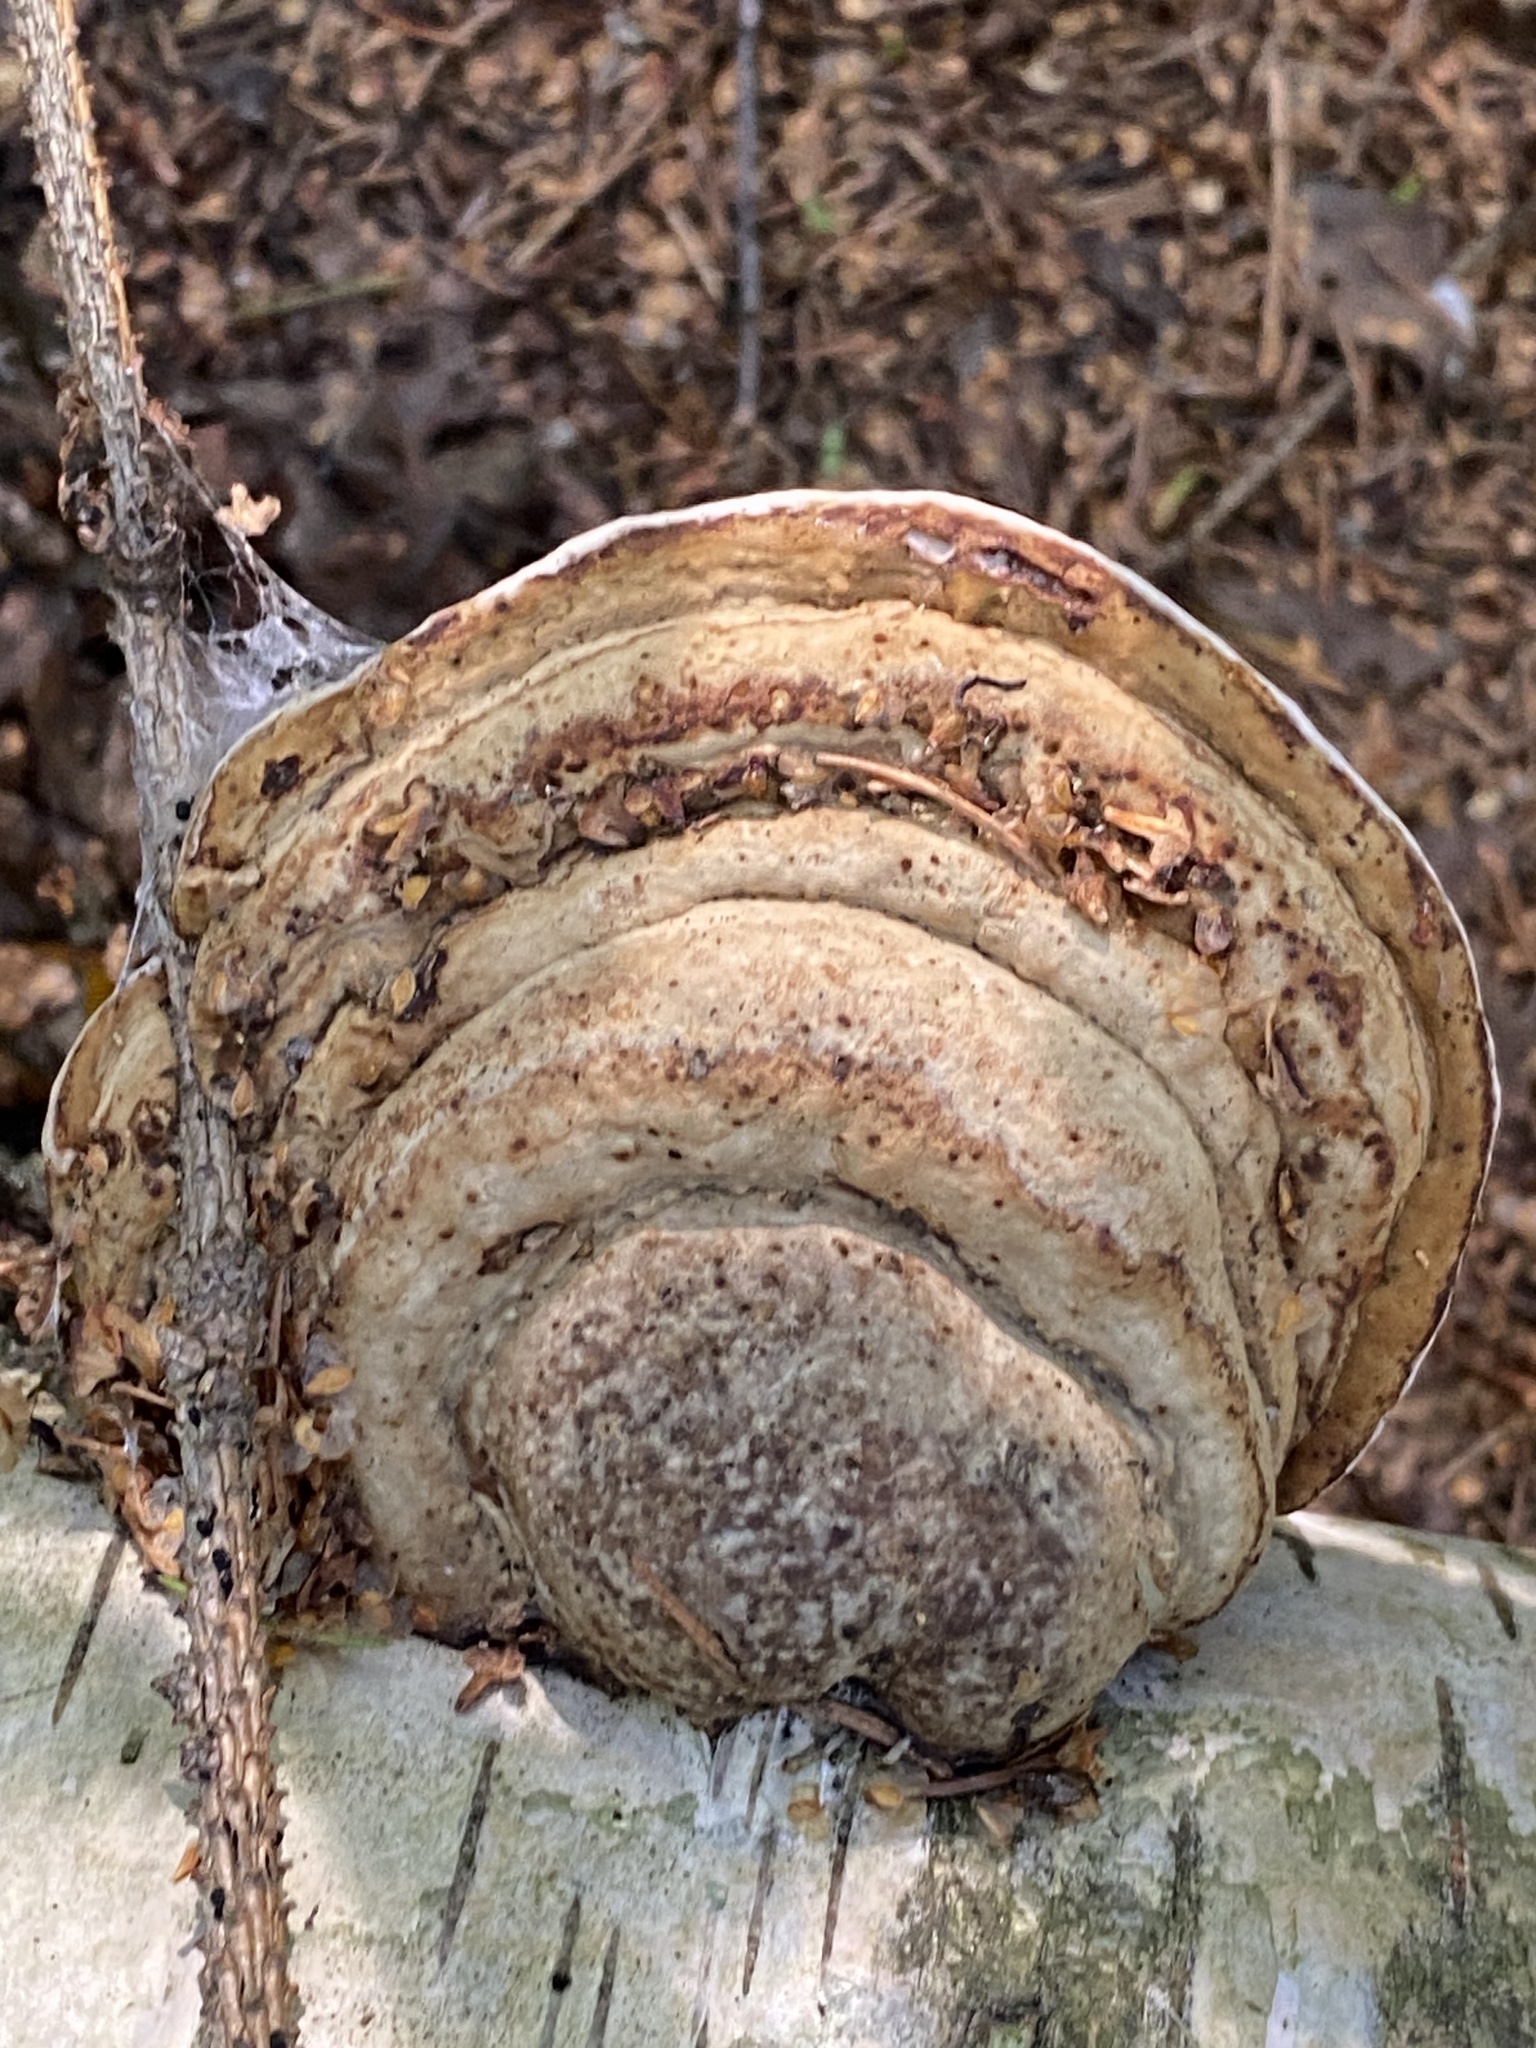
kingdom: Fungi
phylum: Basidiomycota
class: Agaricomycetes
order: Polyporales
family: Polyporaceae
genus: Fomes
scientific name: Fomes fomentarius
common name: Hoof fungus
